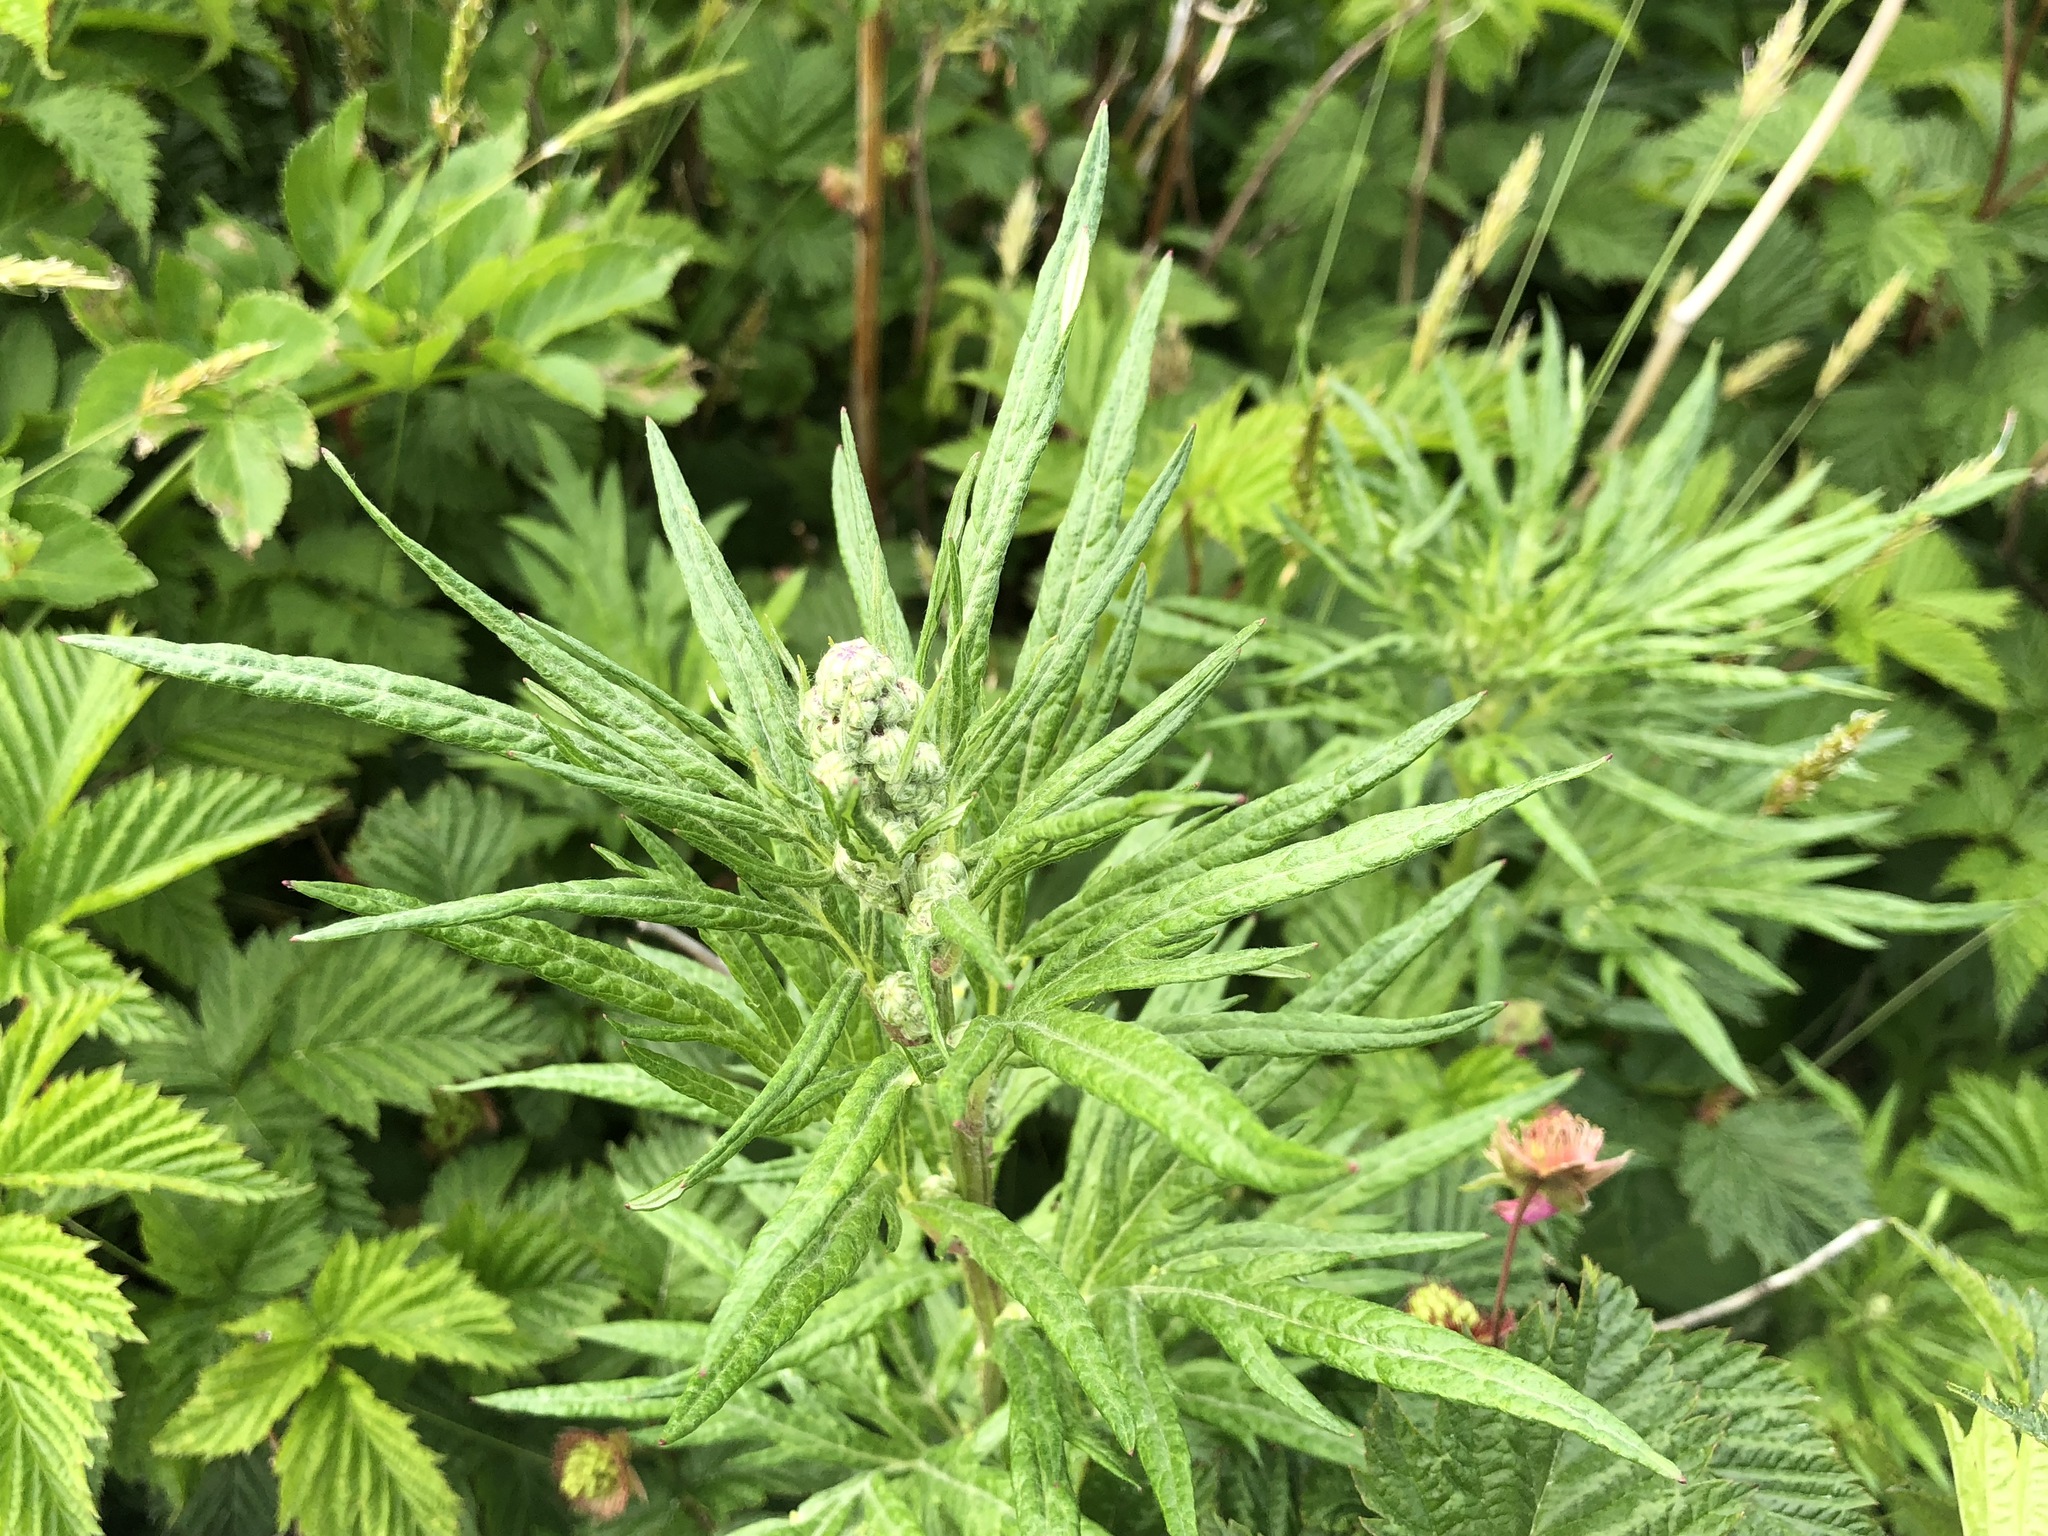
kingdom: Plantae
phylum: Tracheophyta
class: Magnoliopsida
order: Asterales
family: Asteraceae
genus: Artemisia
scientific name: Artemisia tilesii
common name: Aleutian mugwort
